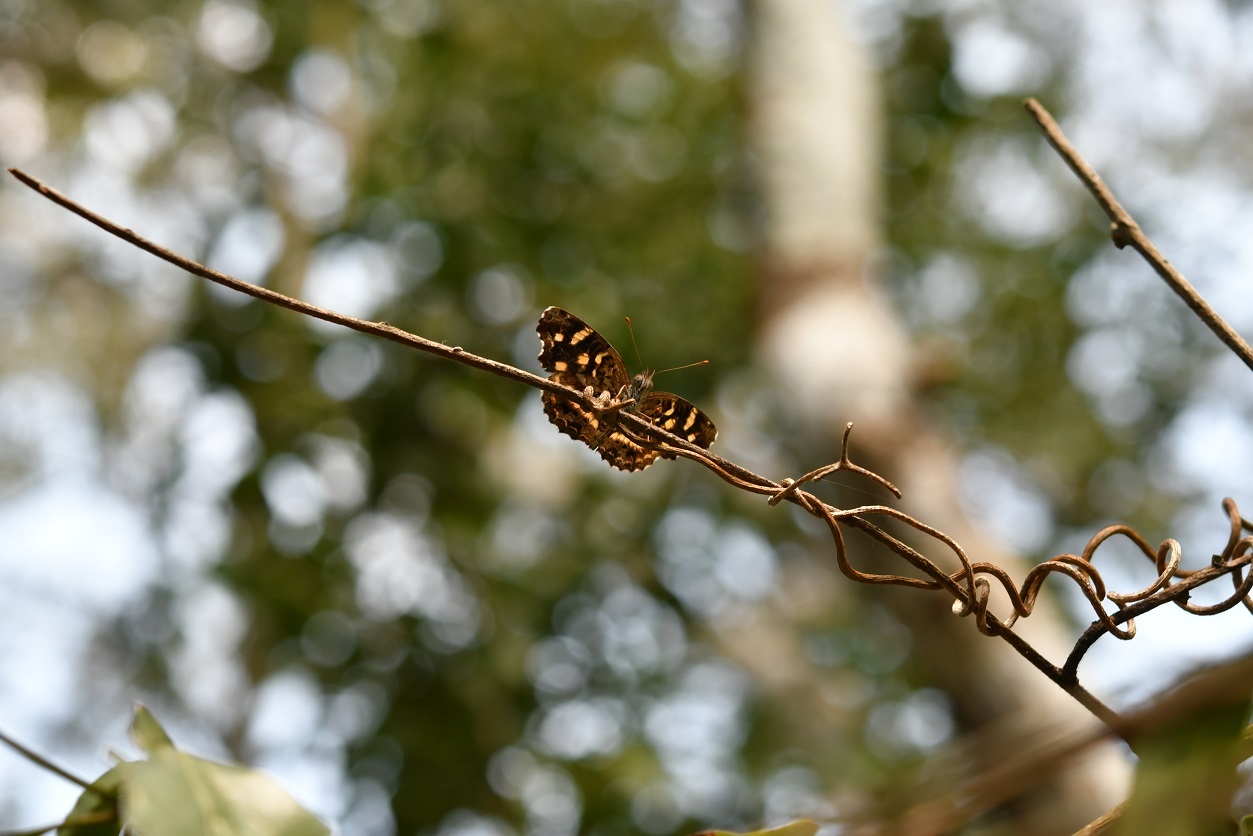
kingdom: Animalia
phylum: Arthropoda
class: Insecta
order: Lepidoptera
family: Nymphalidae
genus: Anthanassa
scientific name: Anthanassa tulcis
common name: Pale-banded crescent
